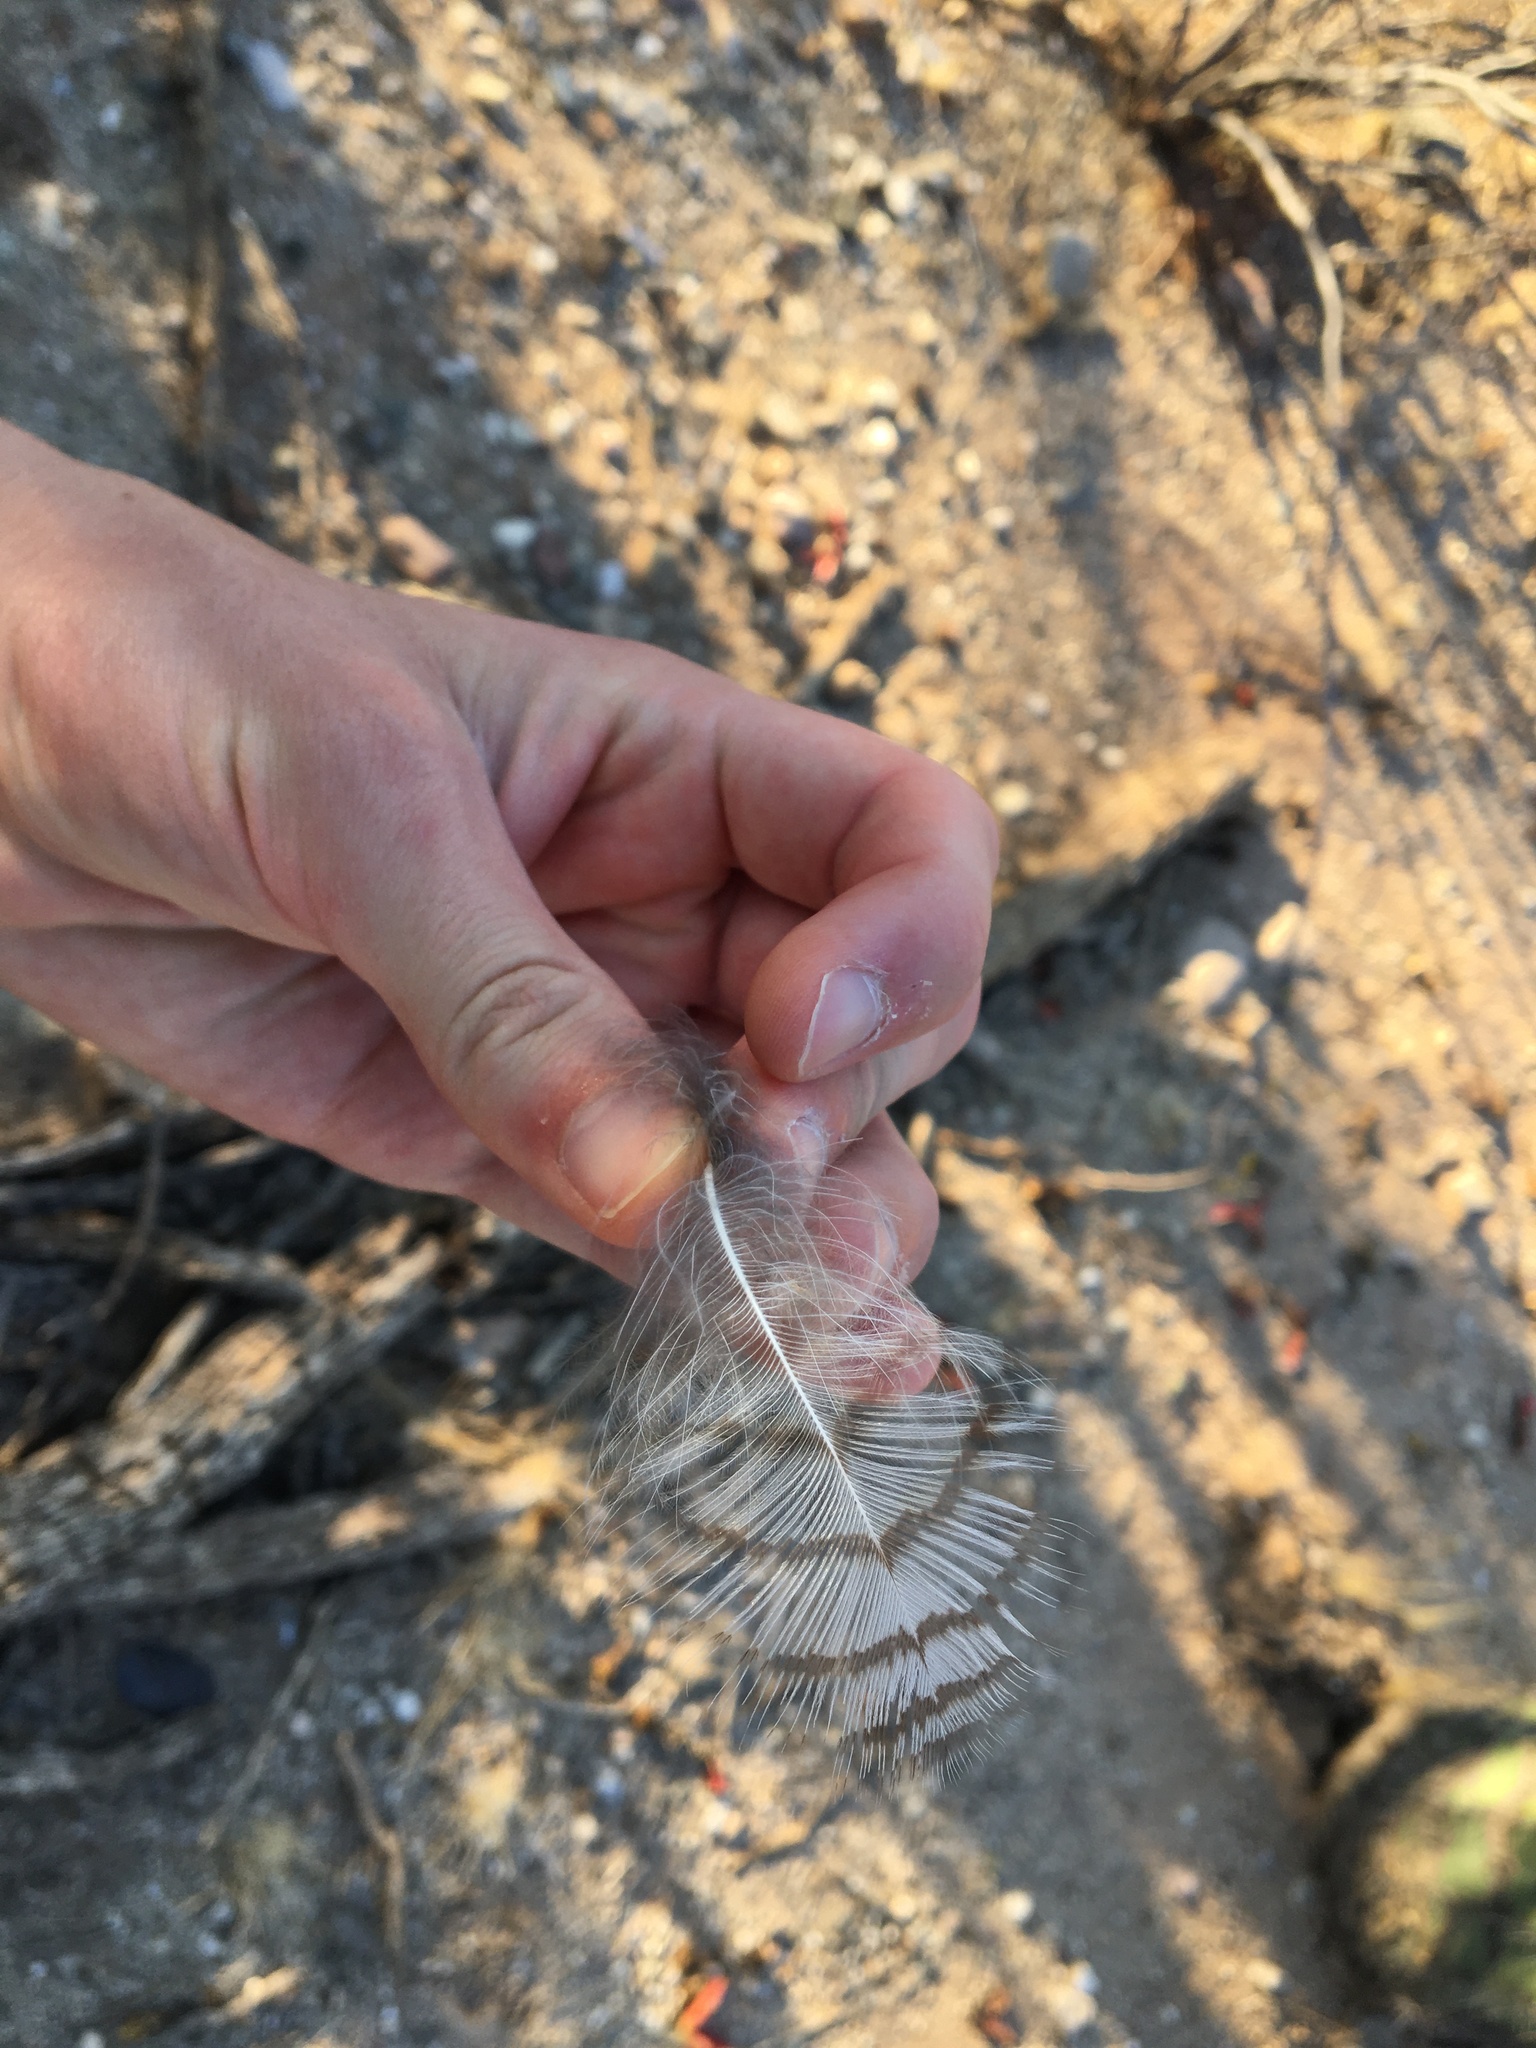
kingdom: Animalia
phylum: Chordata
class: Aves
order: Strigiformes
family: Strigidae
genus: Bubo
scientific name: Bubo virginianus
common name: Great horned owl
